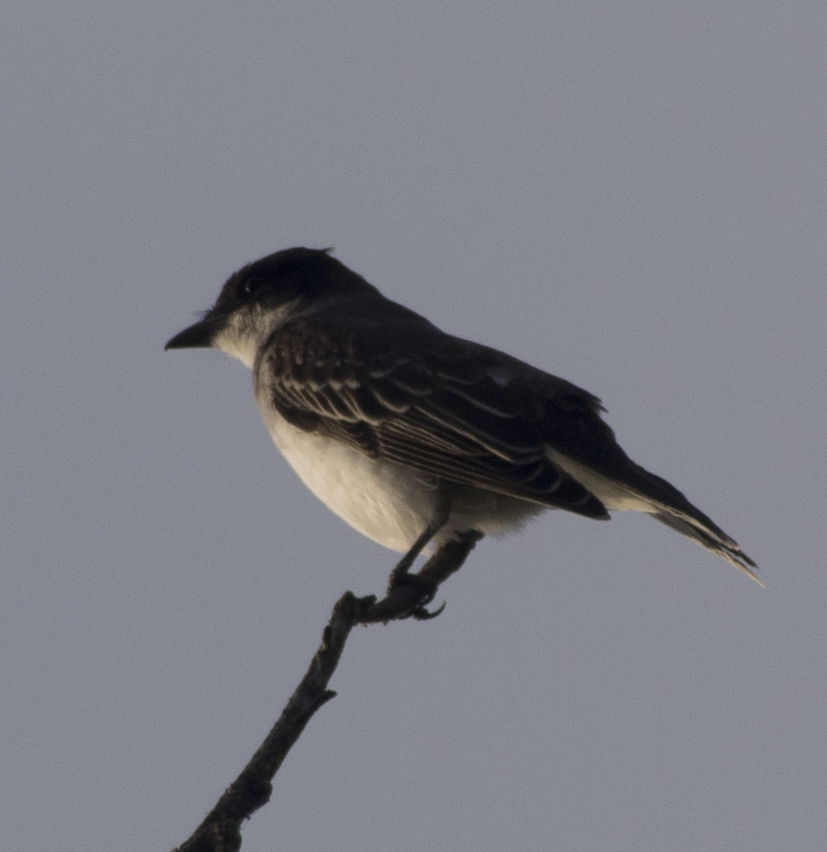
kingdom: Animalia
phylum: Chordata
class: Aves
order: Passeriformes
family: Tyrannidae
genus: Tyrannus
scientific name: Tyrannus tyrannus
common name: Eastern kingbird
